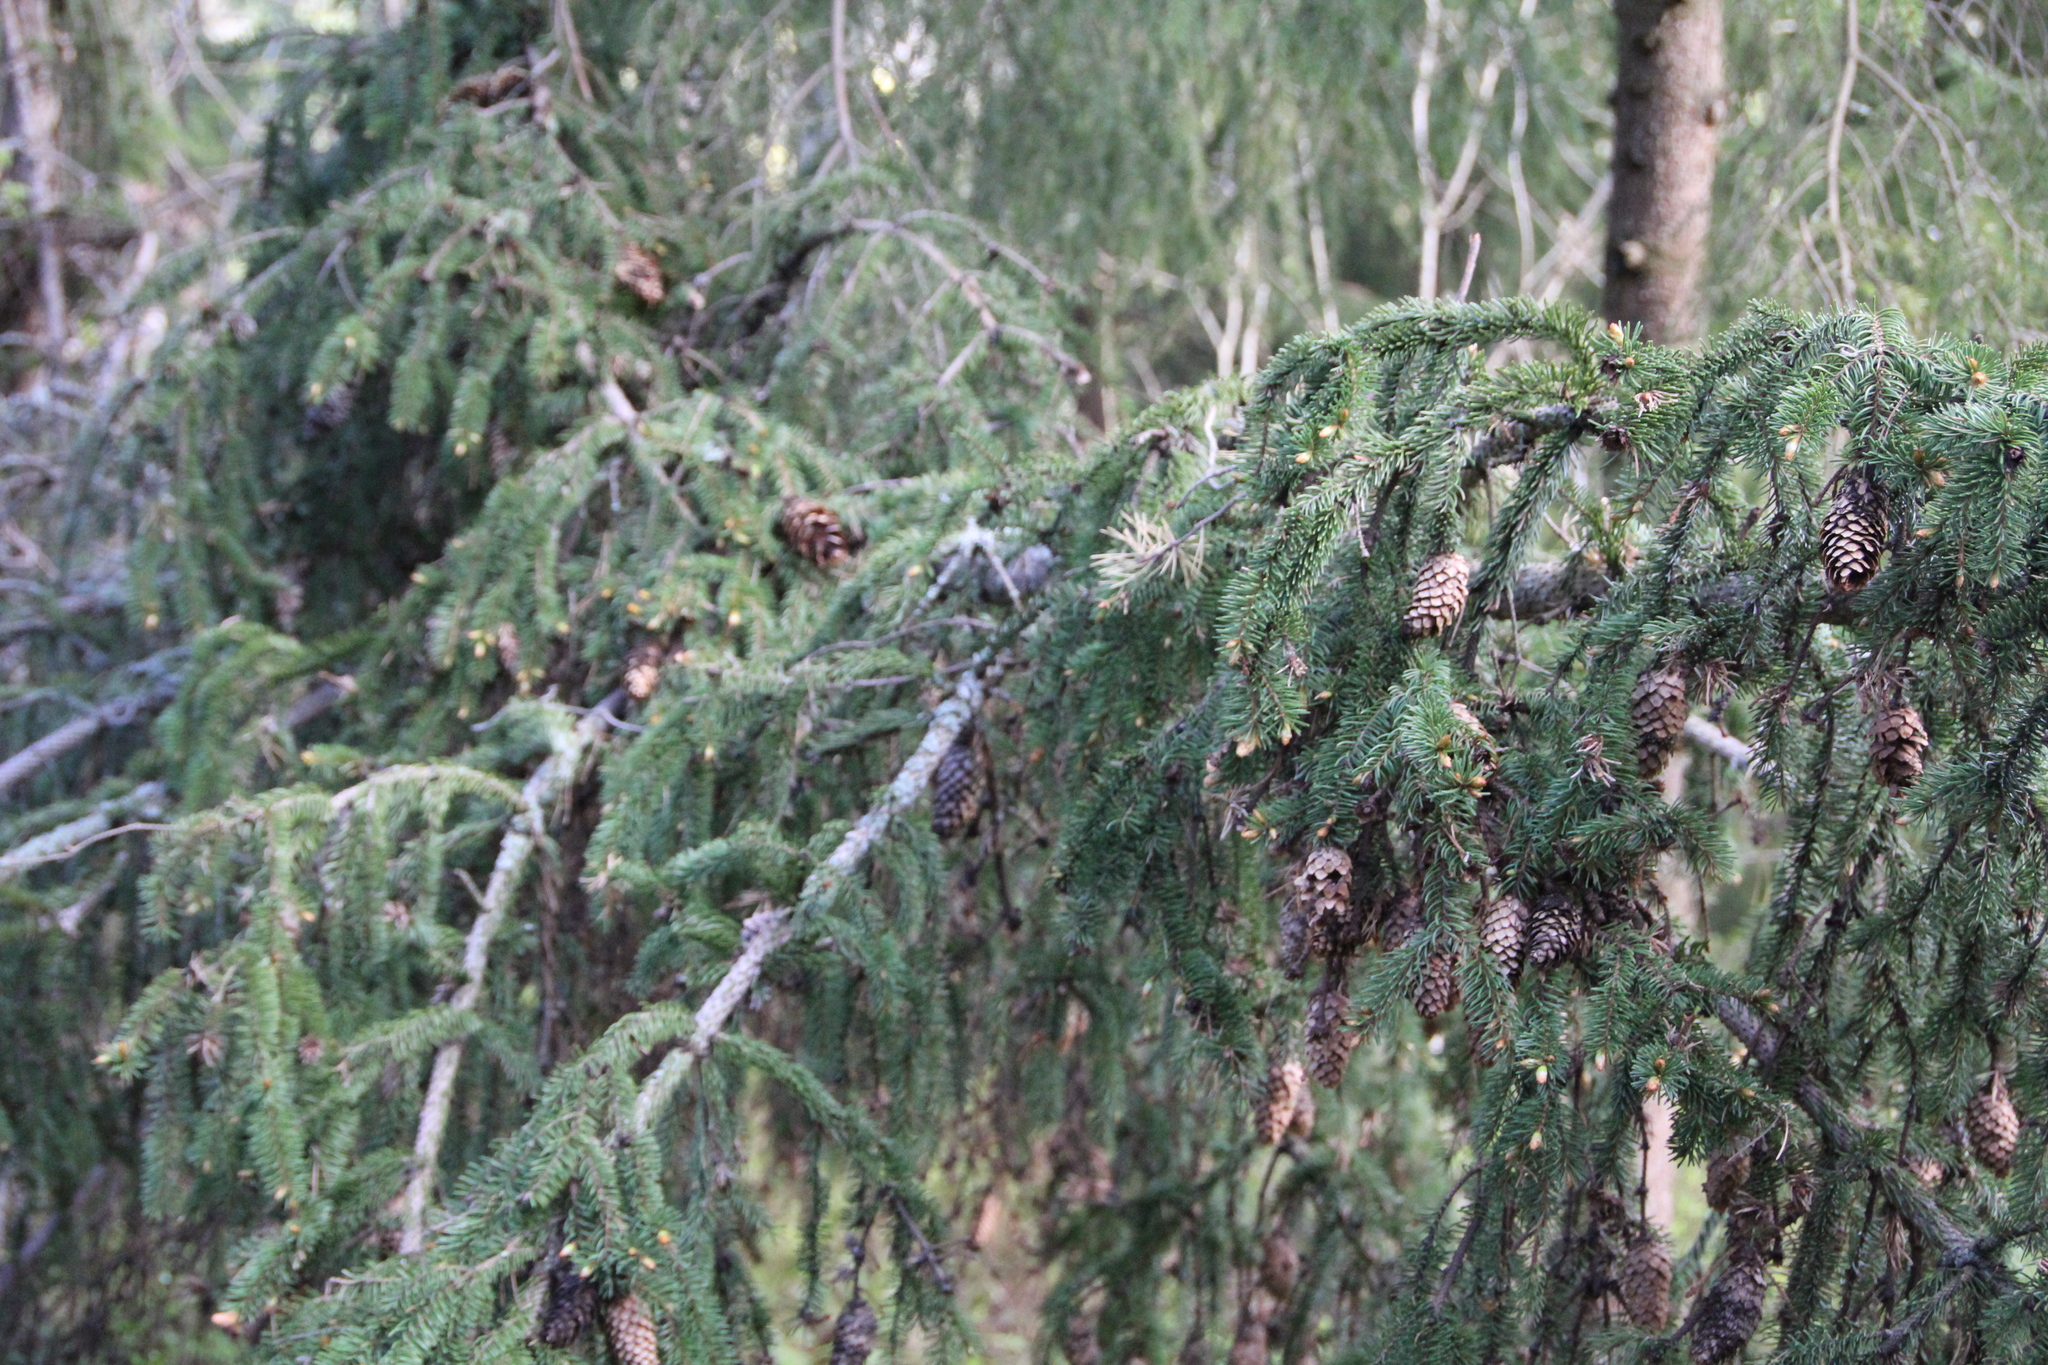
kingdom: Plantae
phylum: Tracheophyta
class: Pinopsida
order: Pinales
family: Pinaceae
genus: Picea
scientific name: Picea abies
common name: Norway spruce
